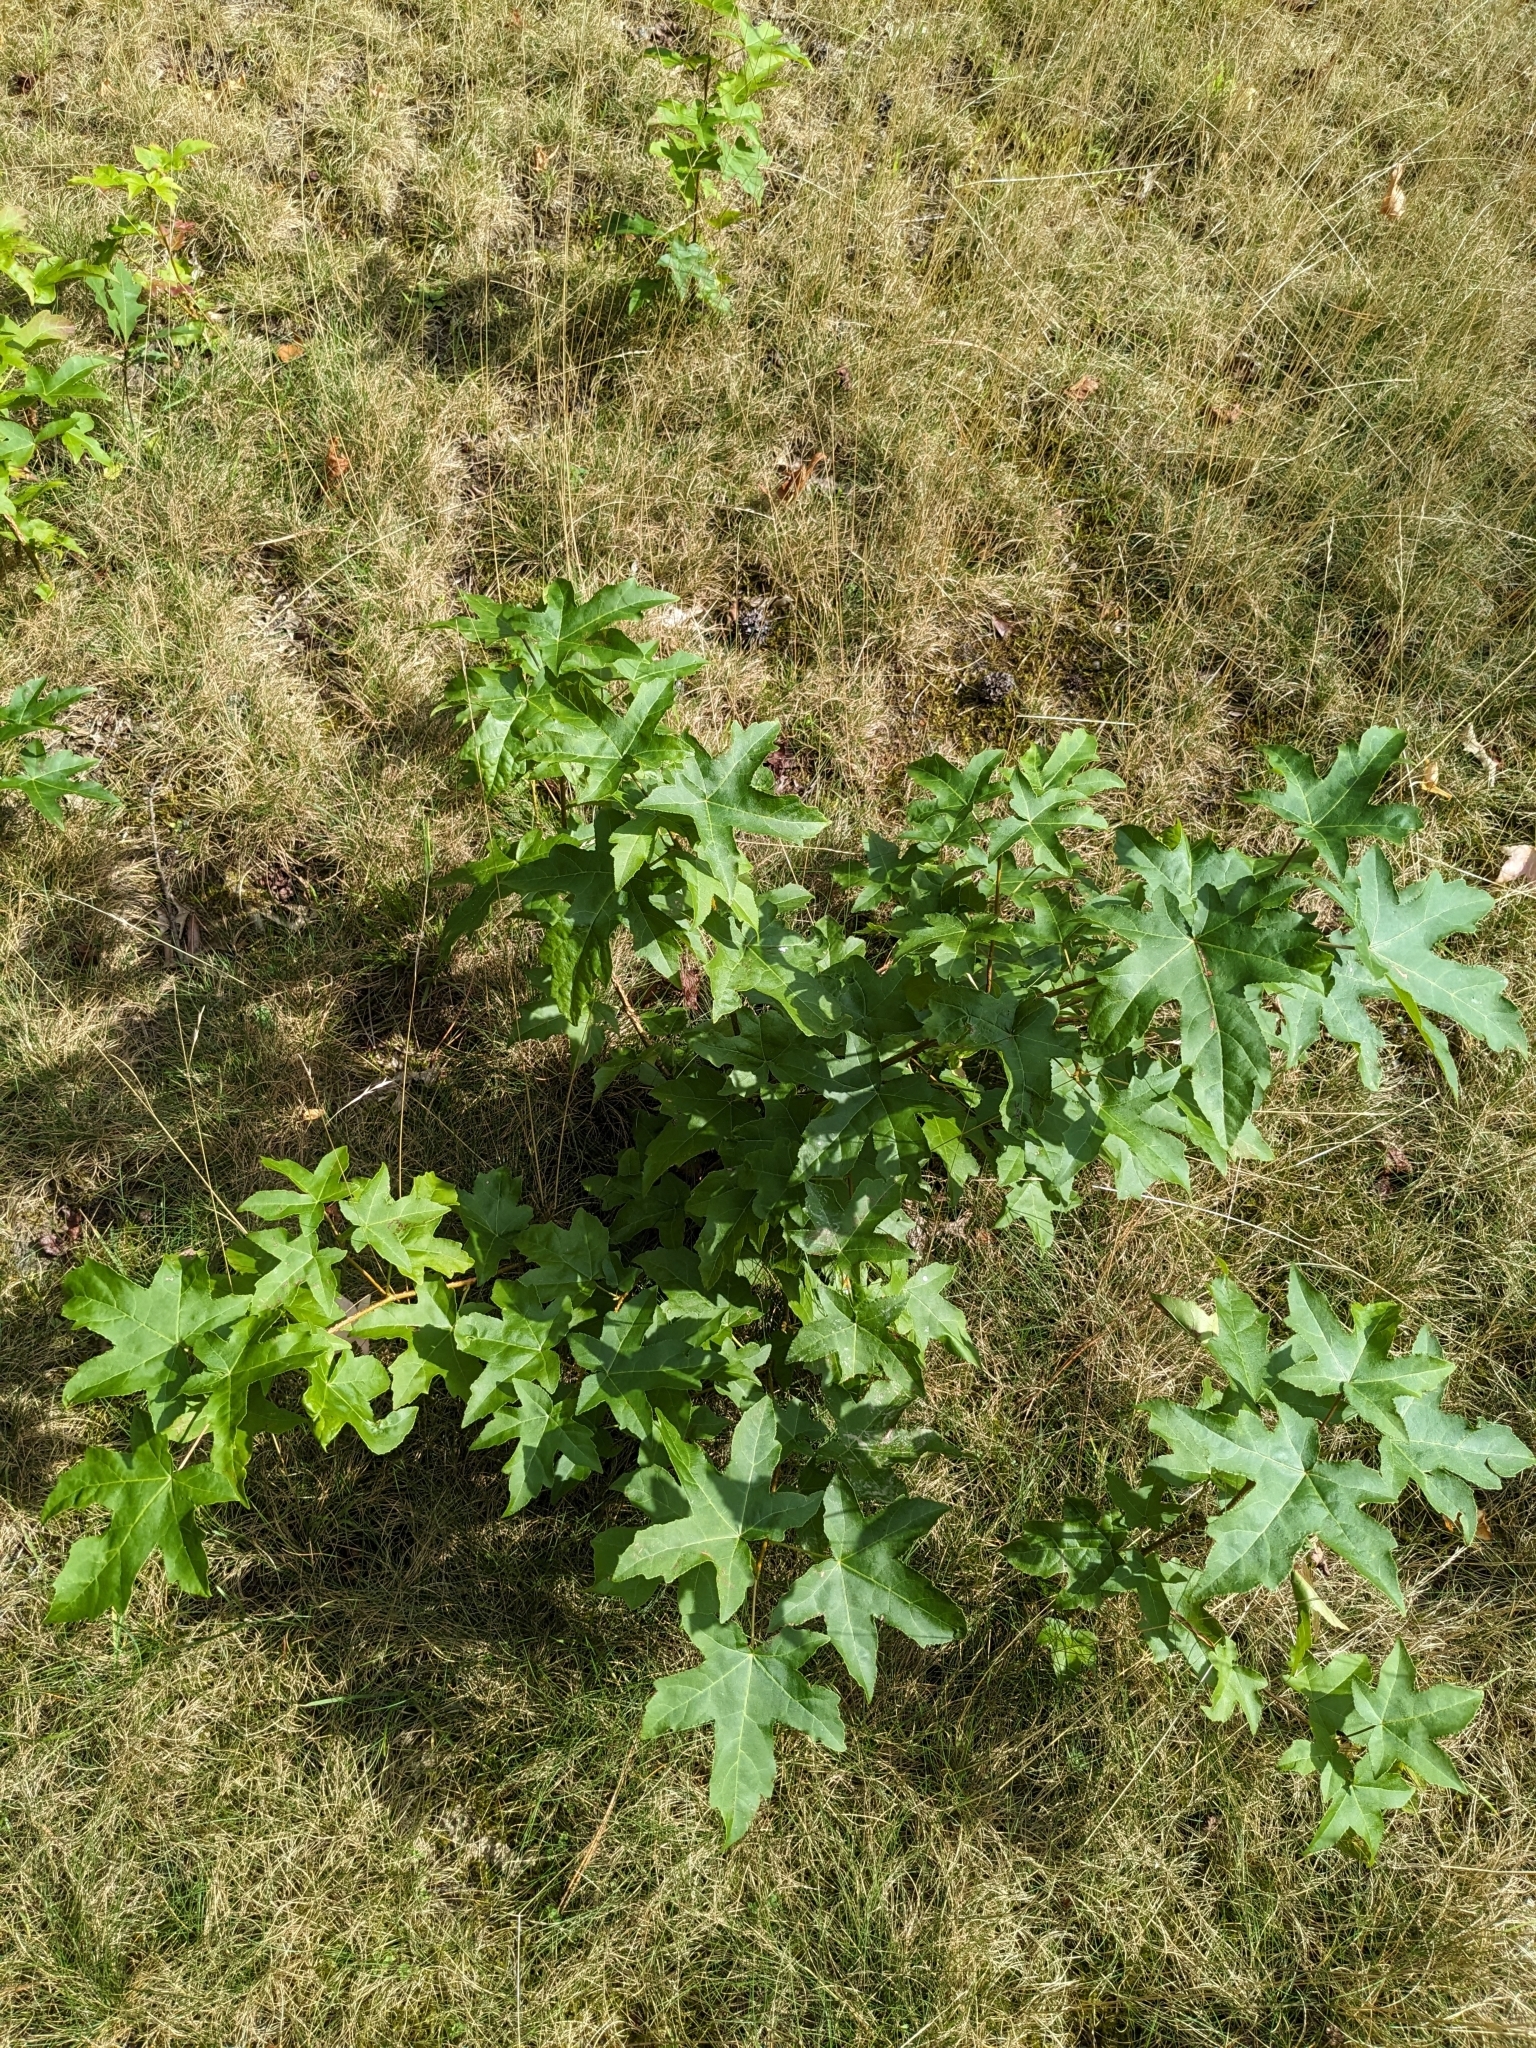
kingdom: Plantae
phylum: Tracheophyta
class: Magnoliopsida
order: Saxifragales
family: Altingiaceae
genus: Liquidambar
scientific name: Liquidambar styraciflua
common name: Sweet gum
